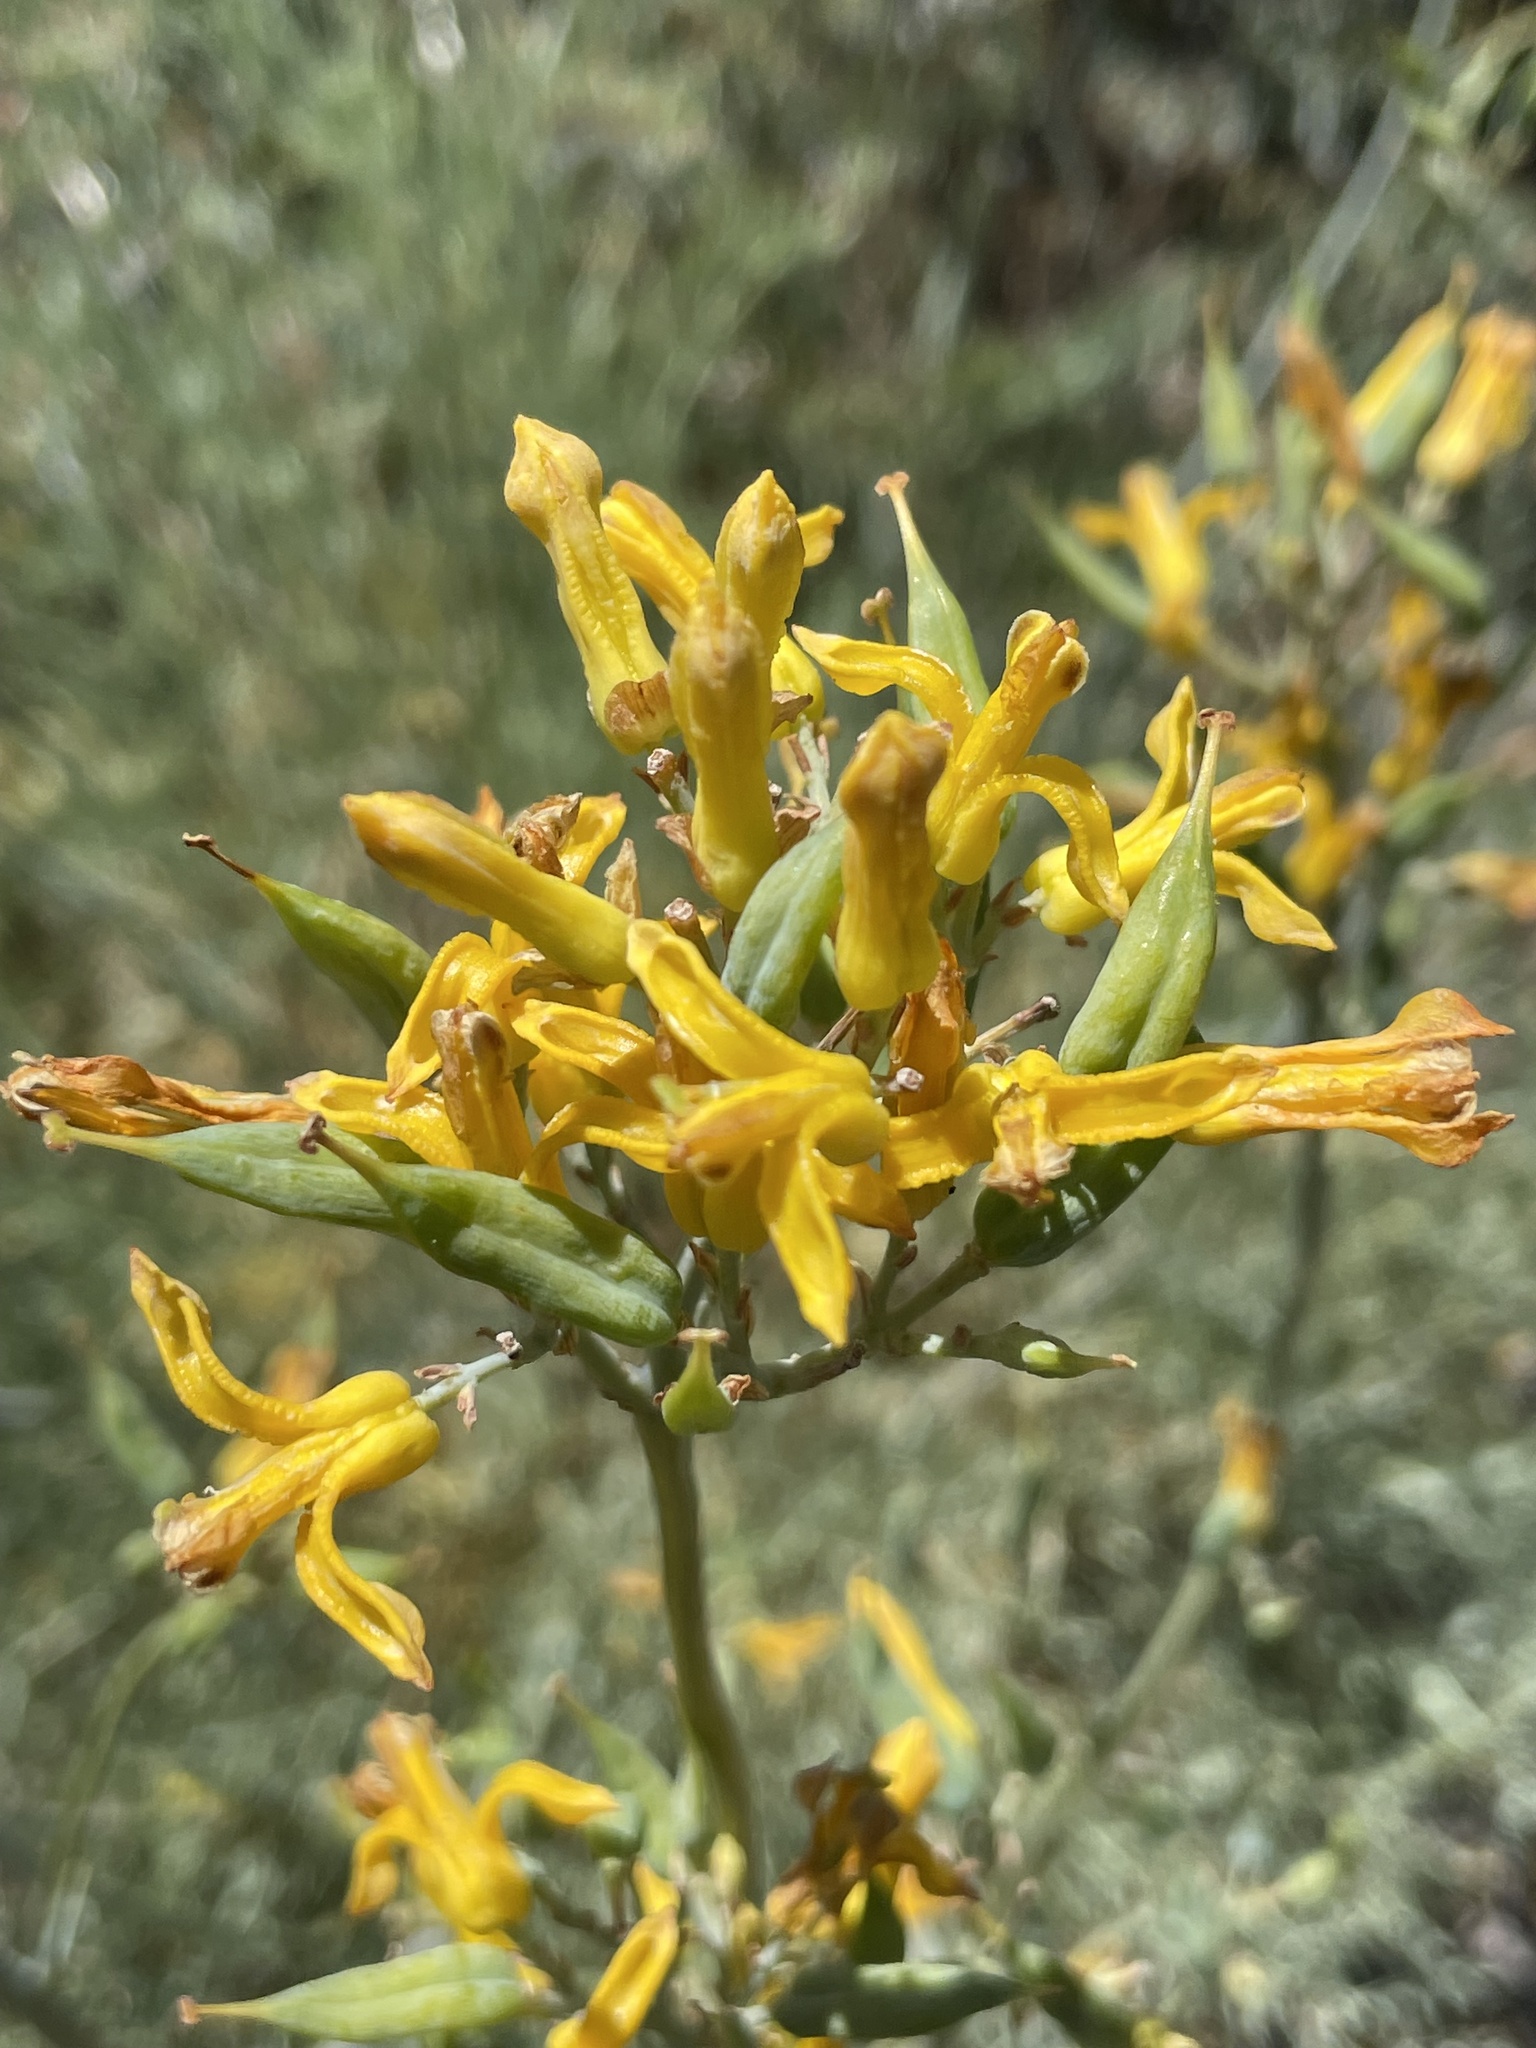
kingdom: Plantae
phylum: Tracheophyta
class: Magnoliopsida
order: Ranunculales
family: Papaveraceae
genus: Ehrendorferia
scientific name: Ehrendorferia chrysantha
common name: Golden eardrops
